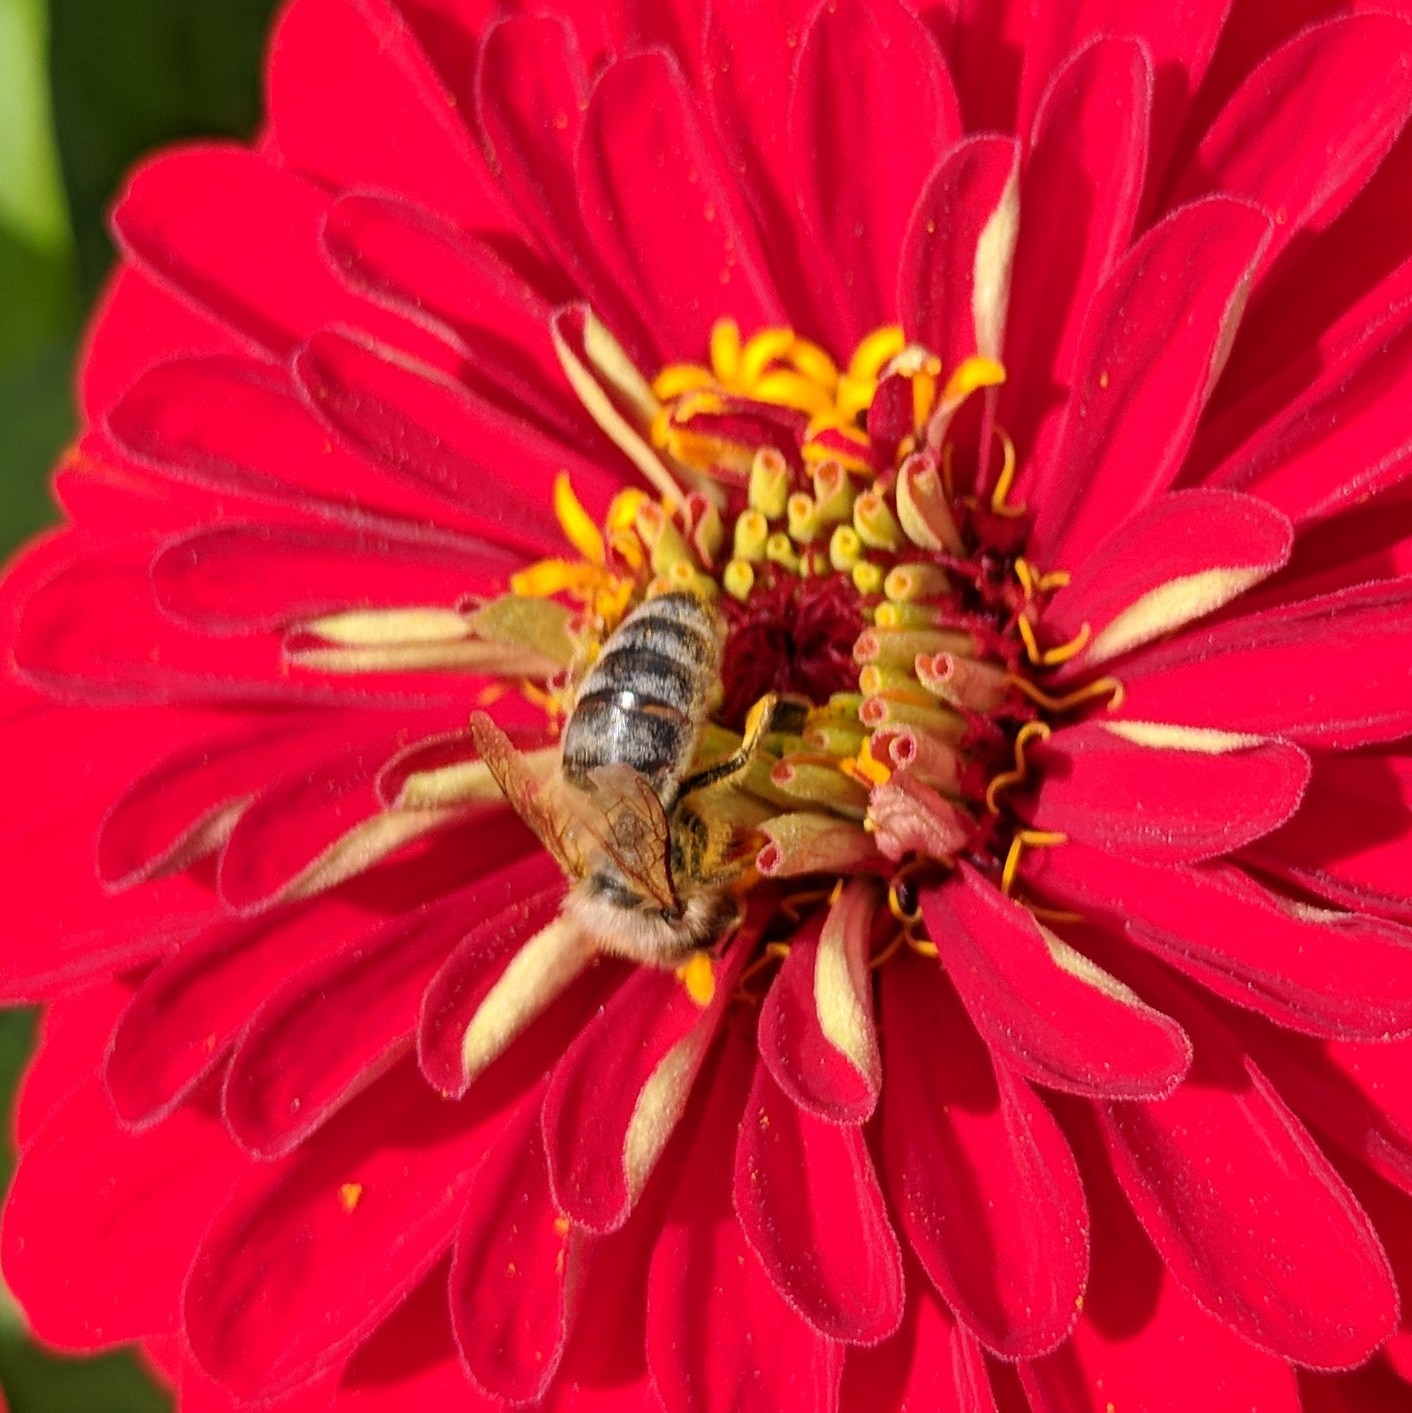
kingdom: Animalia
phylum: Arthropoda
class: Insecta
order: Hymenoptera
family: Apidae
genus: Apis
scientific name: Apis mellifera
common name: Honey bee
